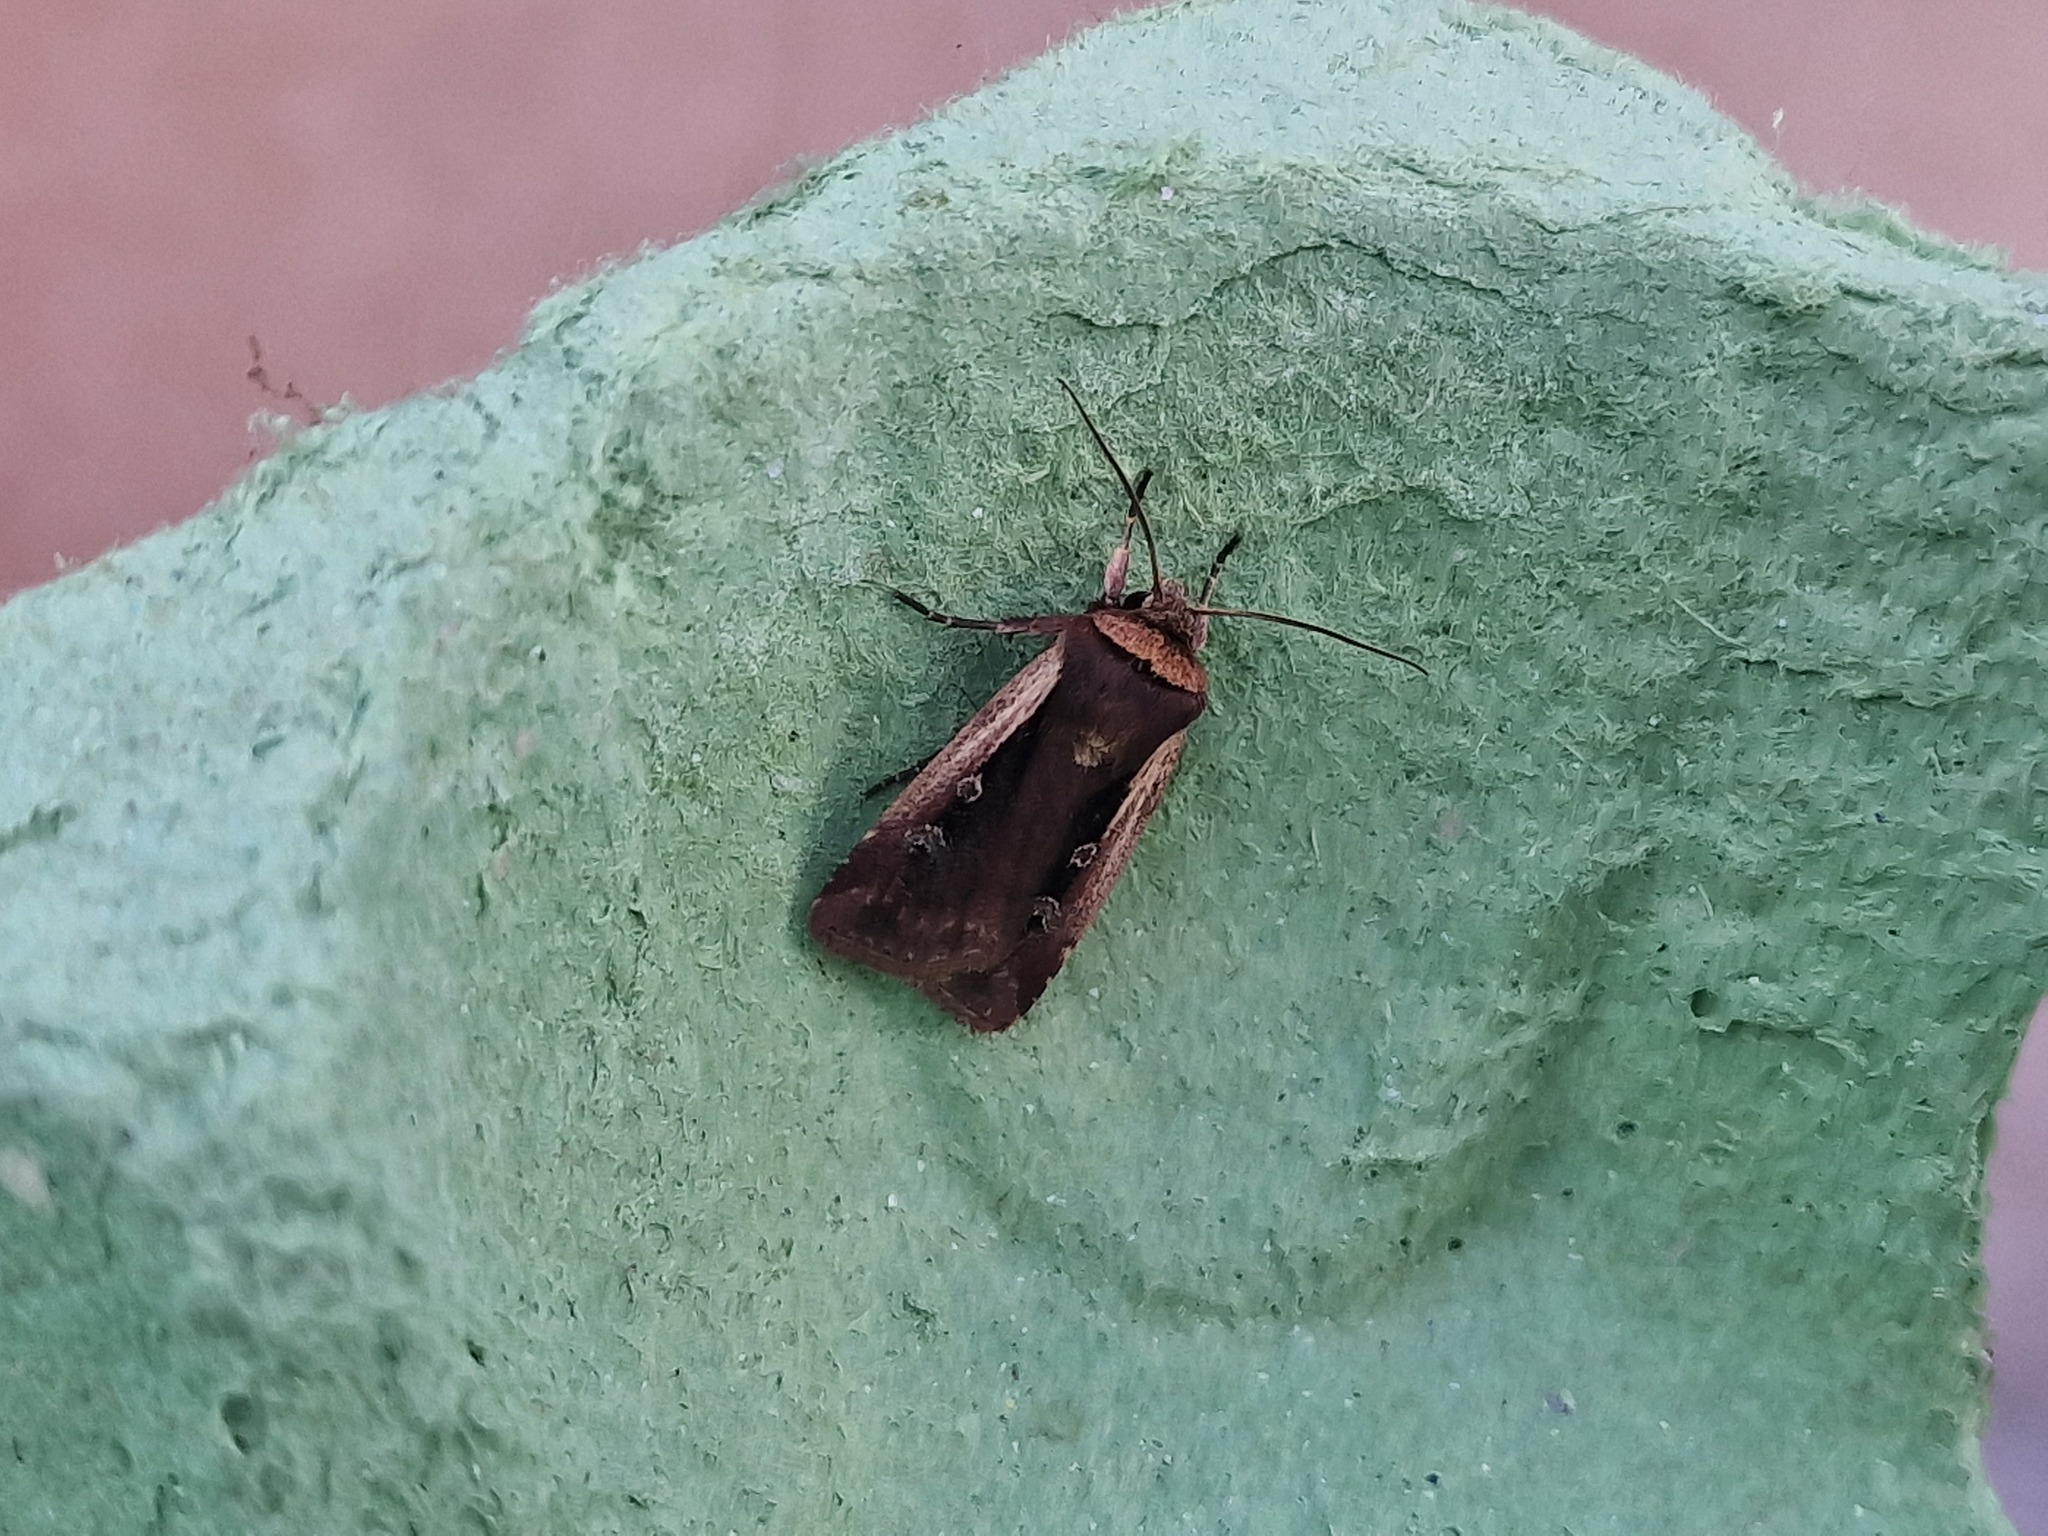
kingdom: Animalia
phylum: Arthropoda
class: Insecta
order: Lepidoptera
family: Noctuidae
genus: Ochropleura
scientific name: Ochropleura plecta
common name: Flame shoulder
